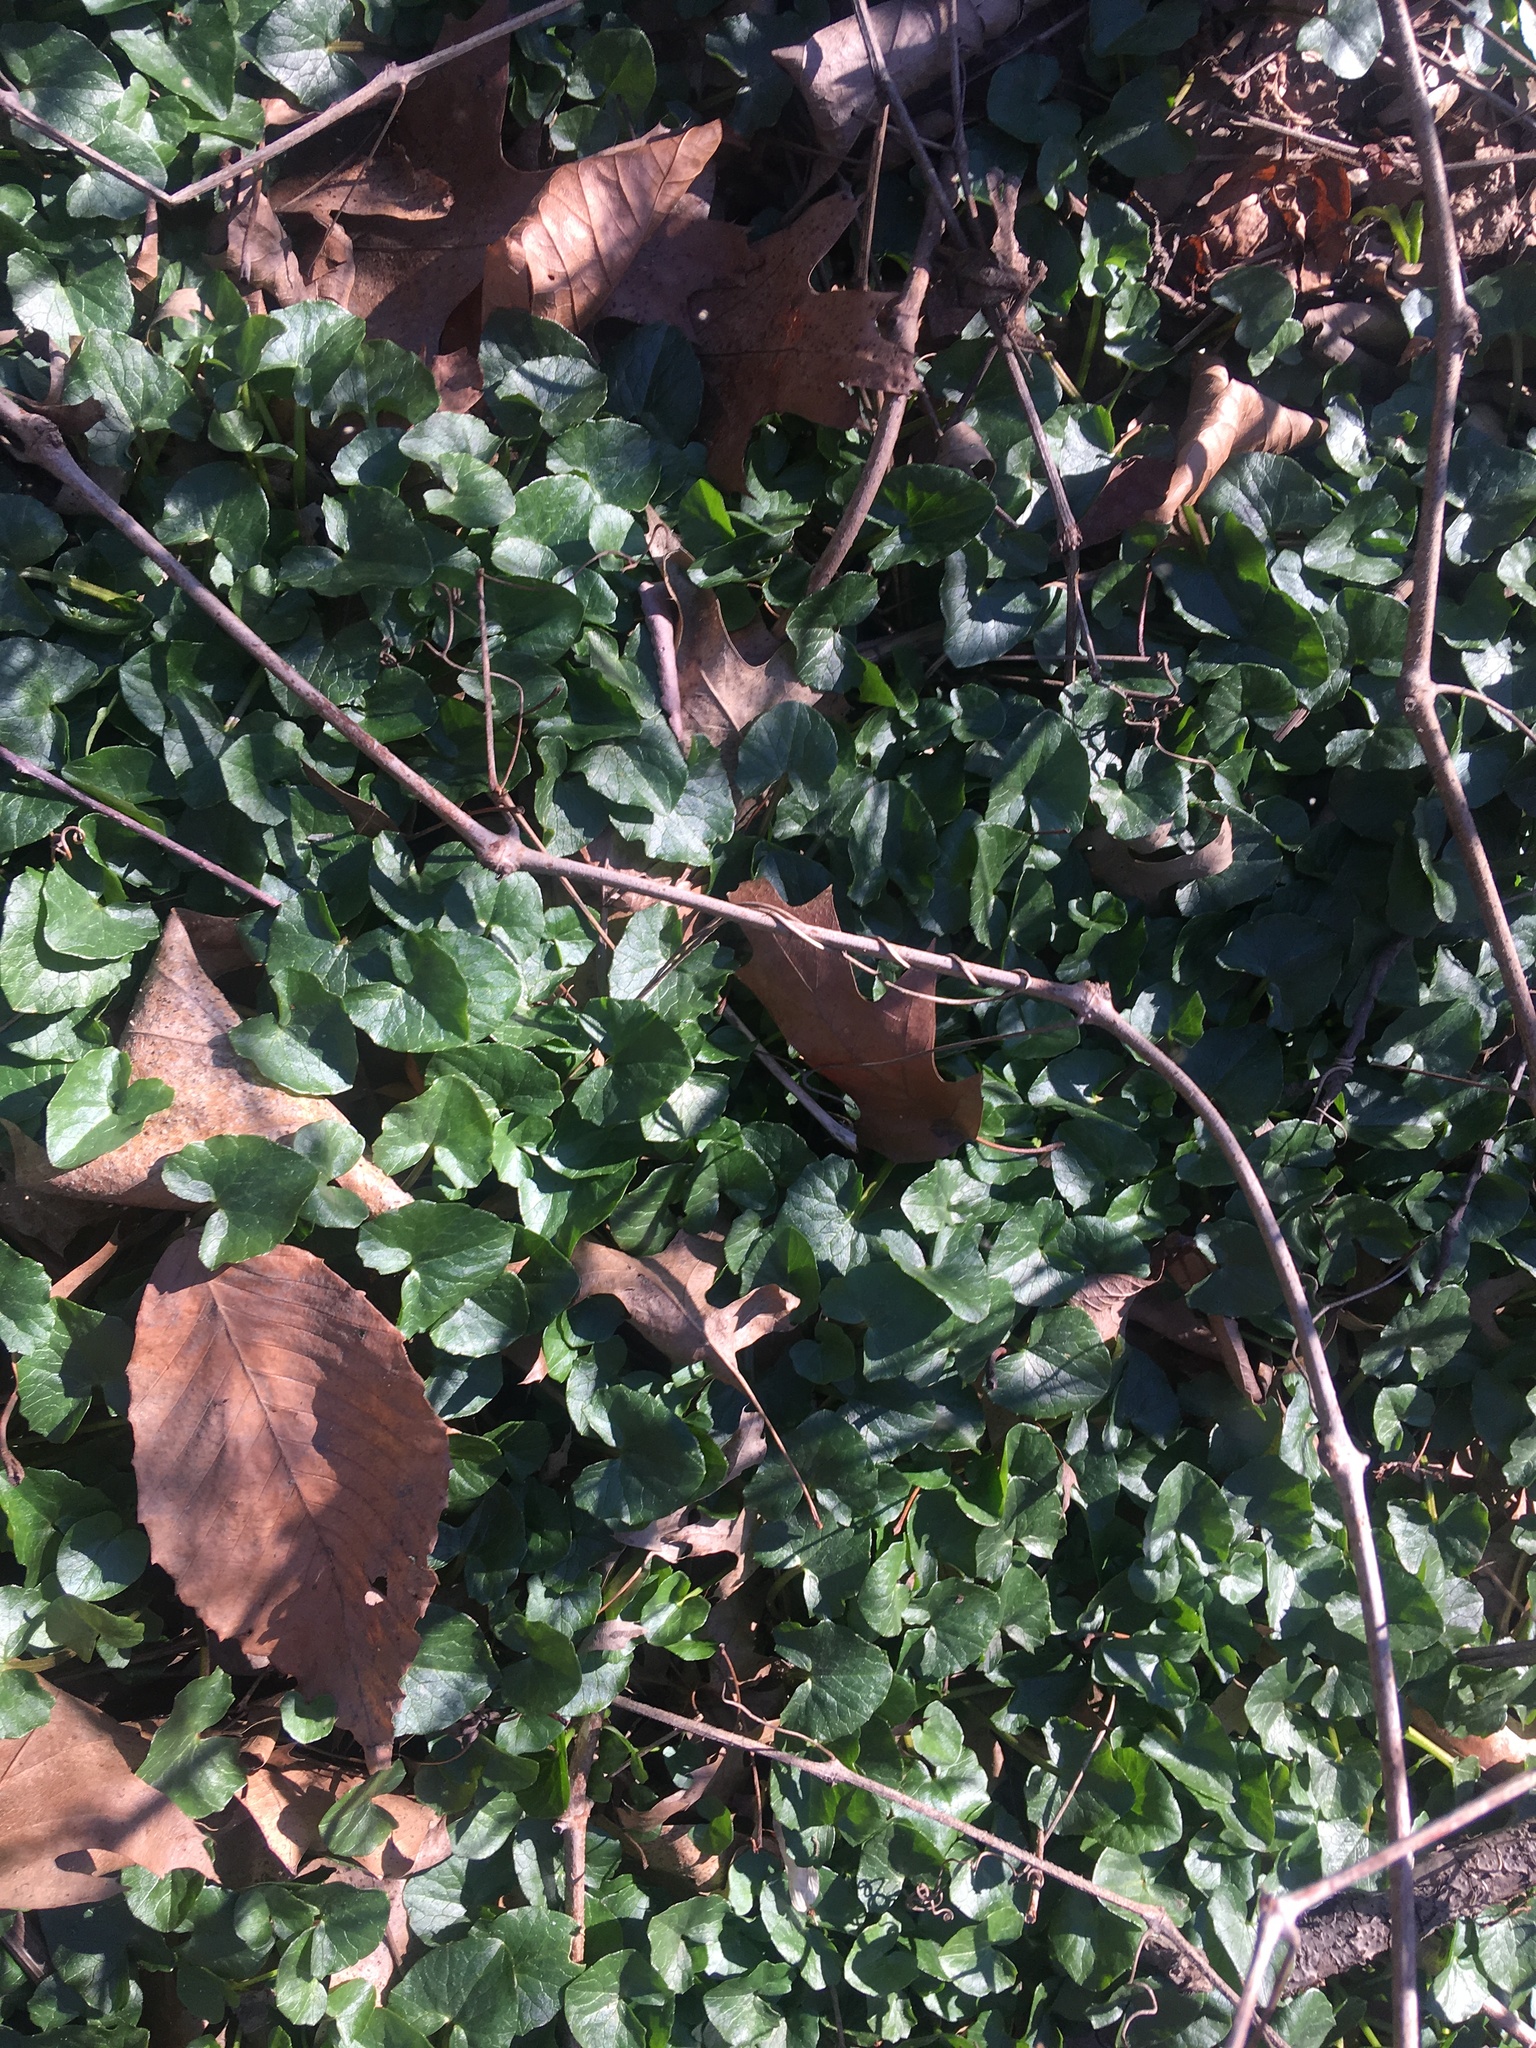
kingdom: Plantae
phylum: Tracheophyta
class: Magnoliopsida
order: Ranunculales
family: Ranunculaceae
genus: Ficaria
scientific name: Ficaria verna
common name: Lesser celandine
